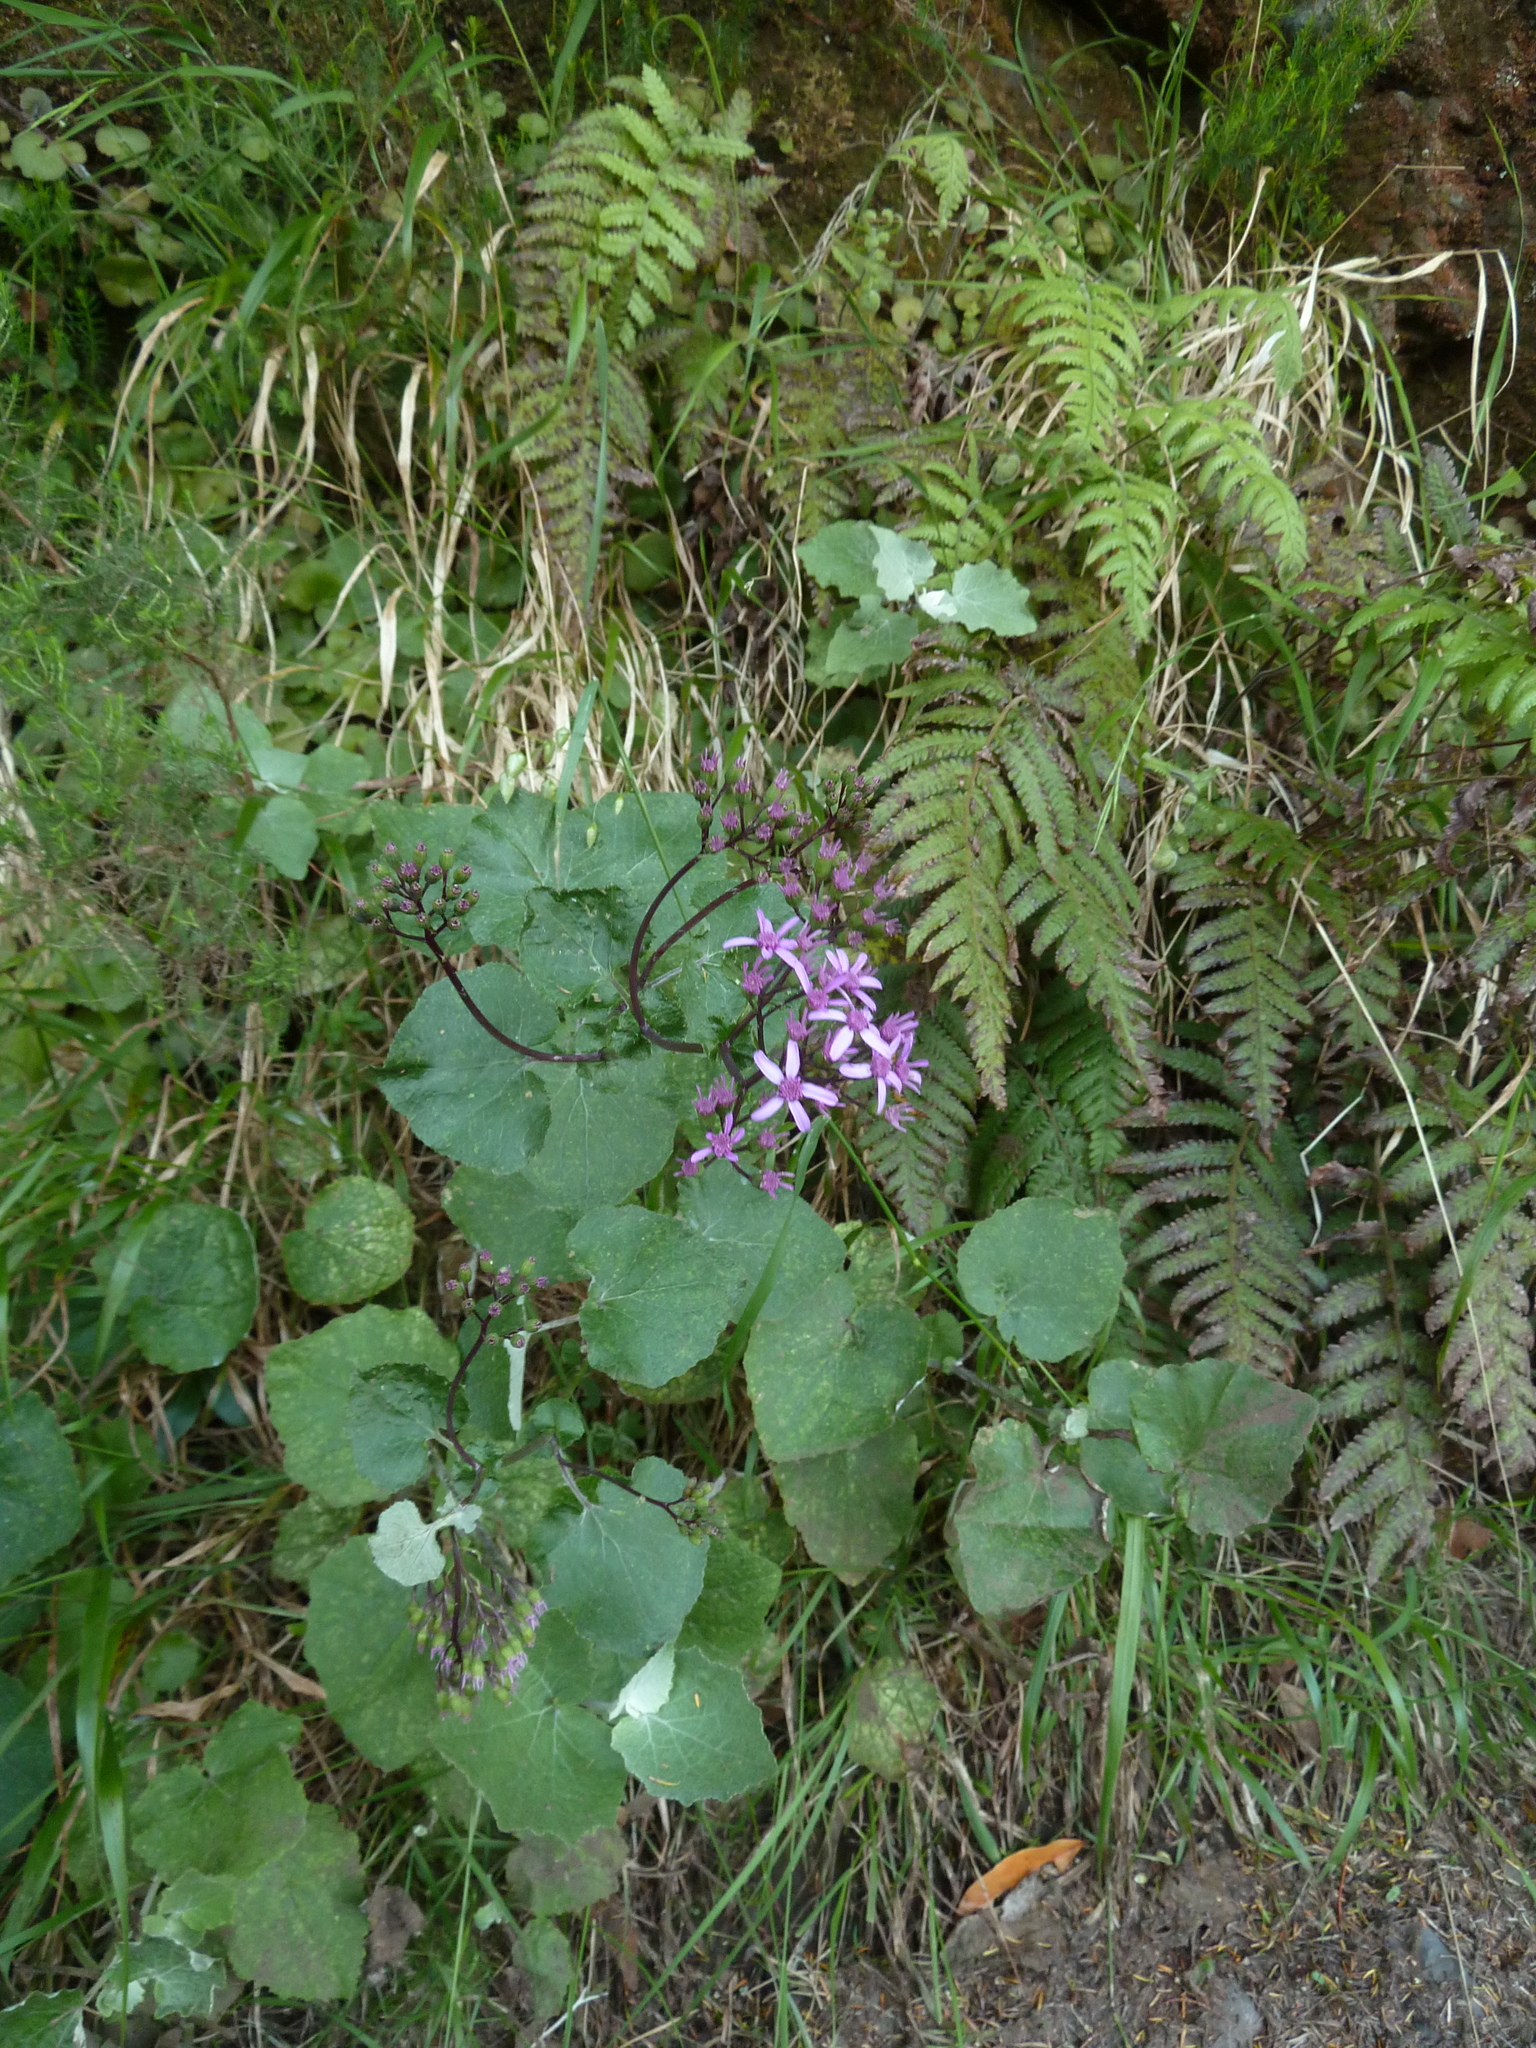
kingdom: Plantae
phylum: Tracheophyta
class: Magnoliopsida
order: Asterales
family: Asteraceae
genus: Pericallis
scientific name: Pericallis aurita
